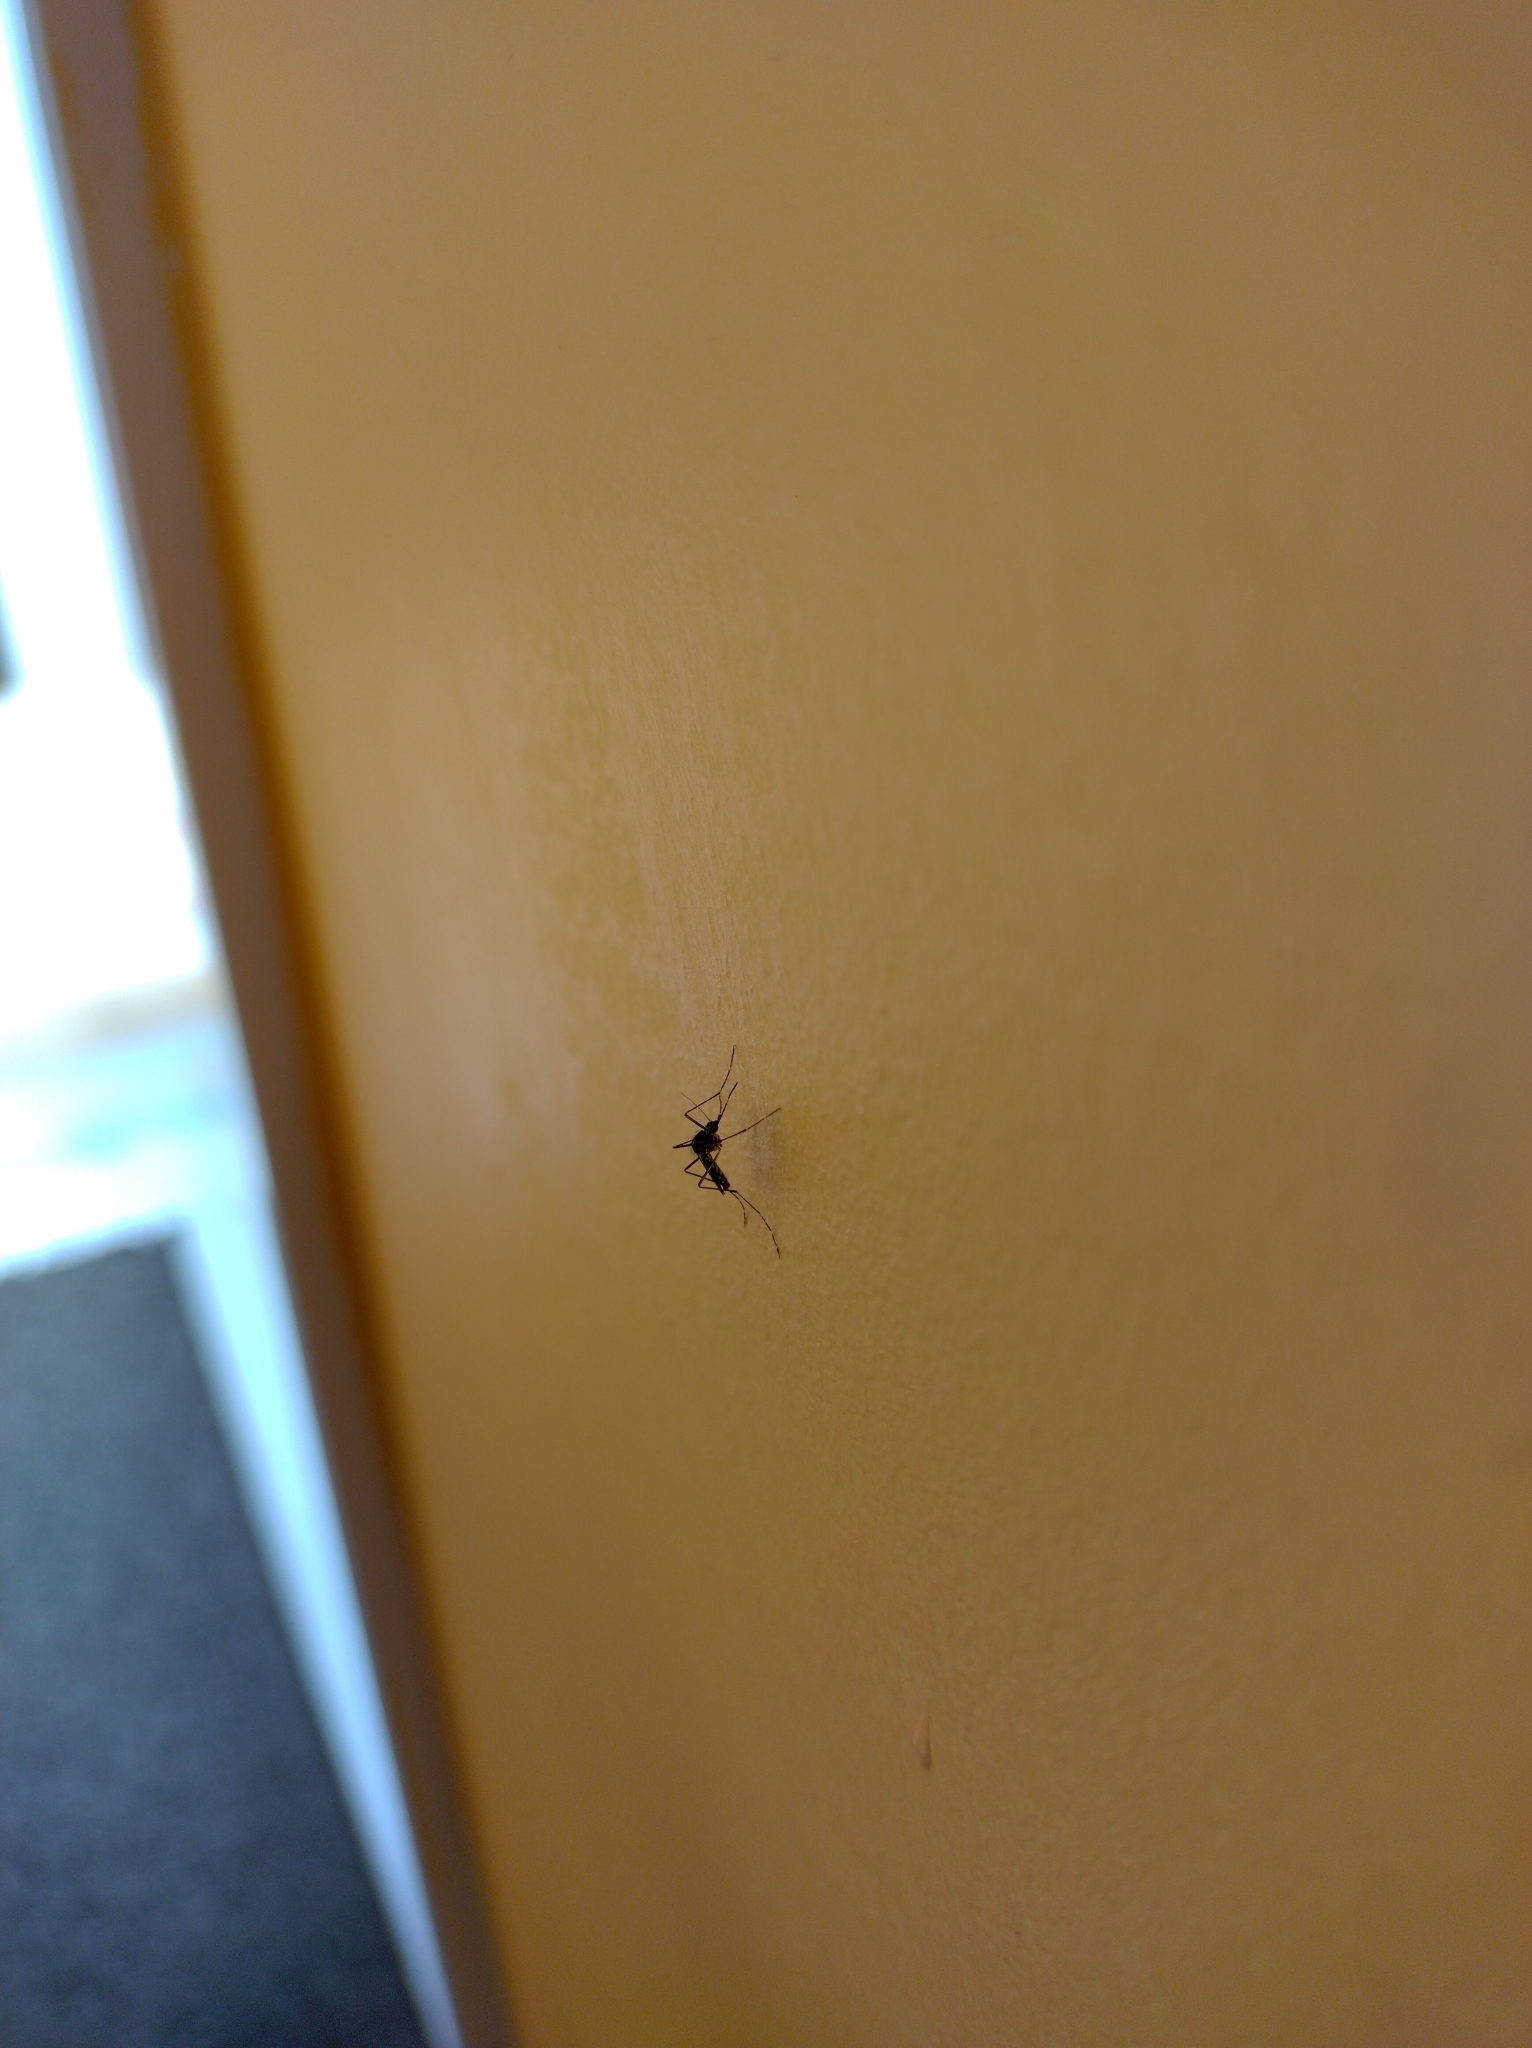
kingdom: Animalia
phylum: Arthropoda
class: Insecta
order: Diptera
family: Culicidae
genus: Aedes
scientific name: Aedes notoscriptus
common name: Australian backyard mosquito
